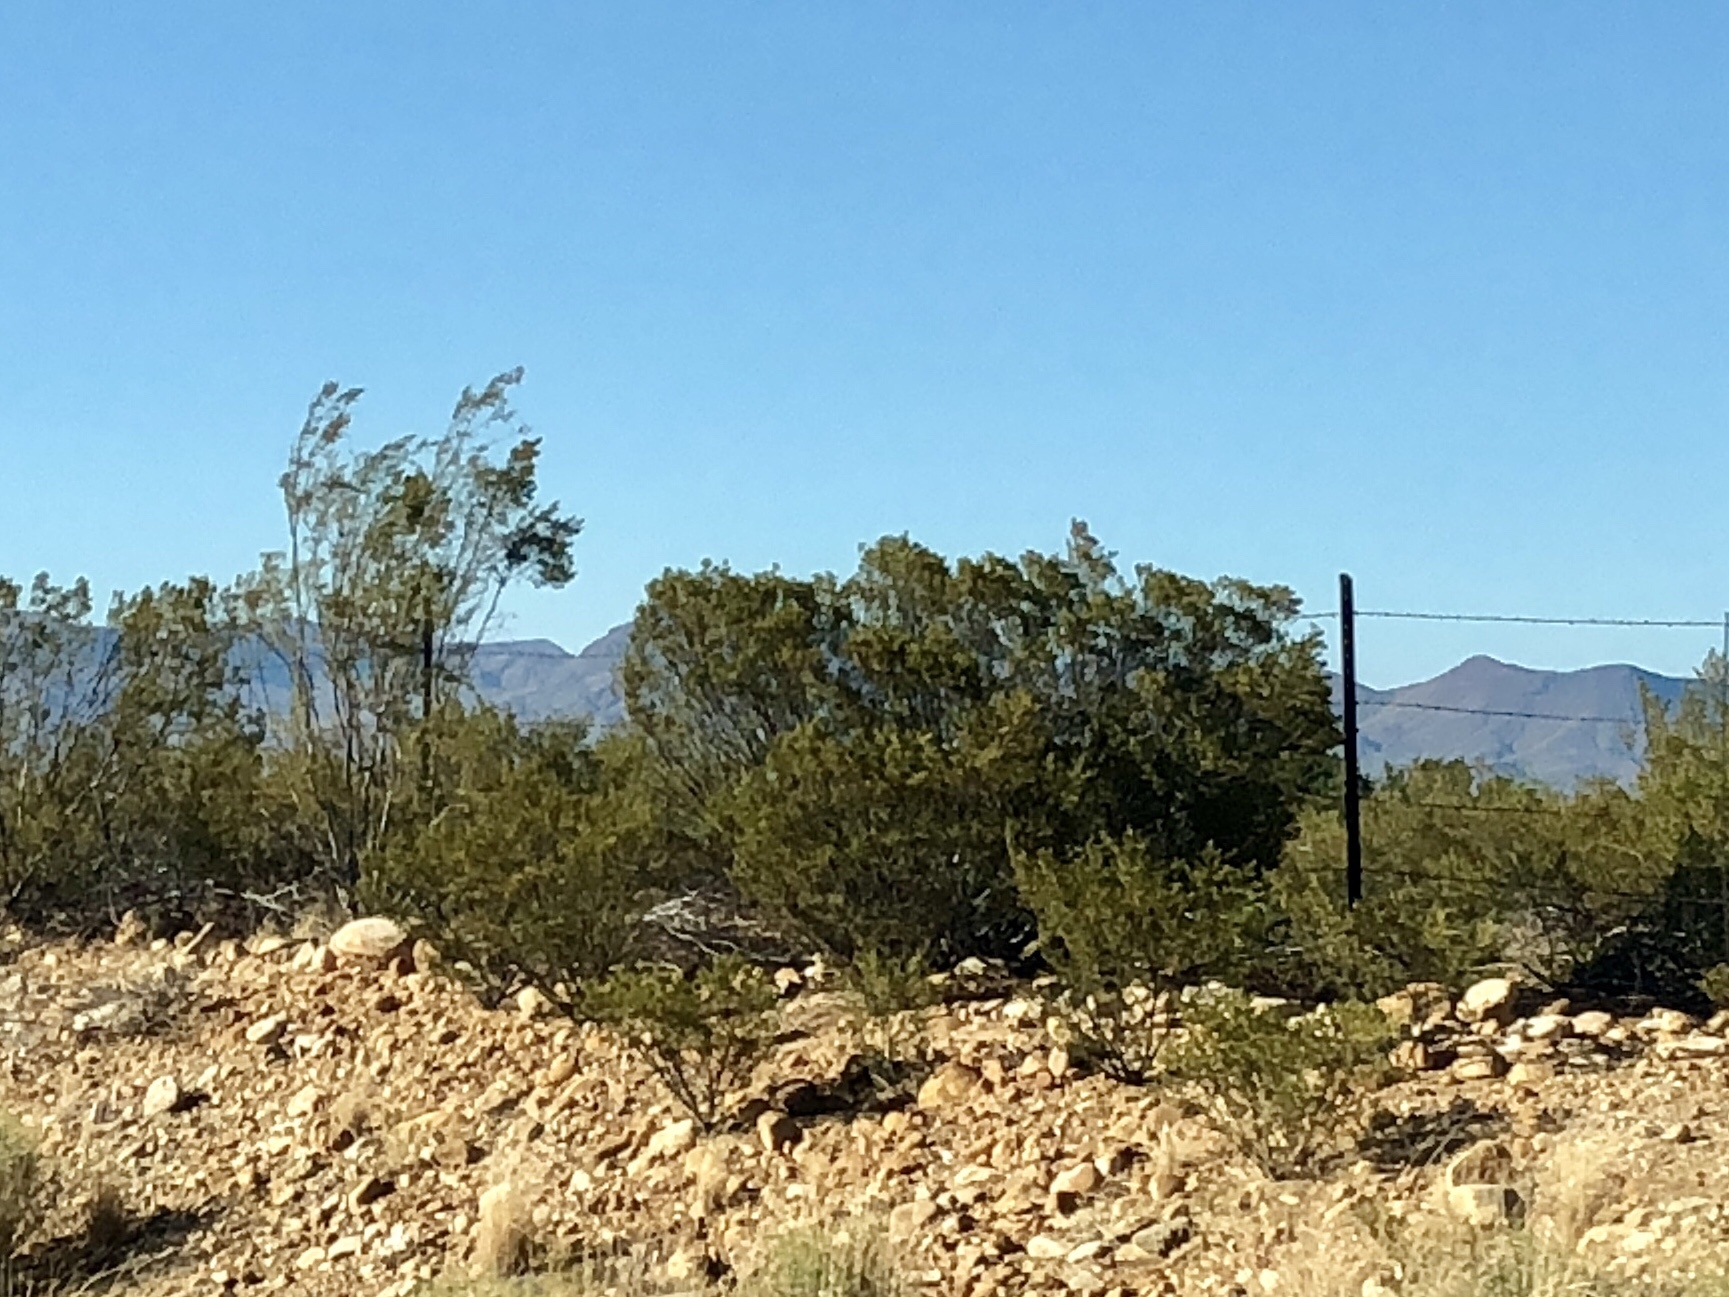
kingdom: Plantae
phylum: Tracheophyta
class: Magnoliopsida
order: Zygophyllales
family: Zygophyllaceae
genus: Larrea
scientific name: Larrea tridentata
